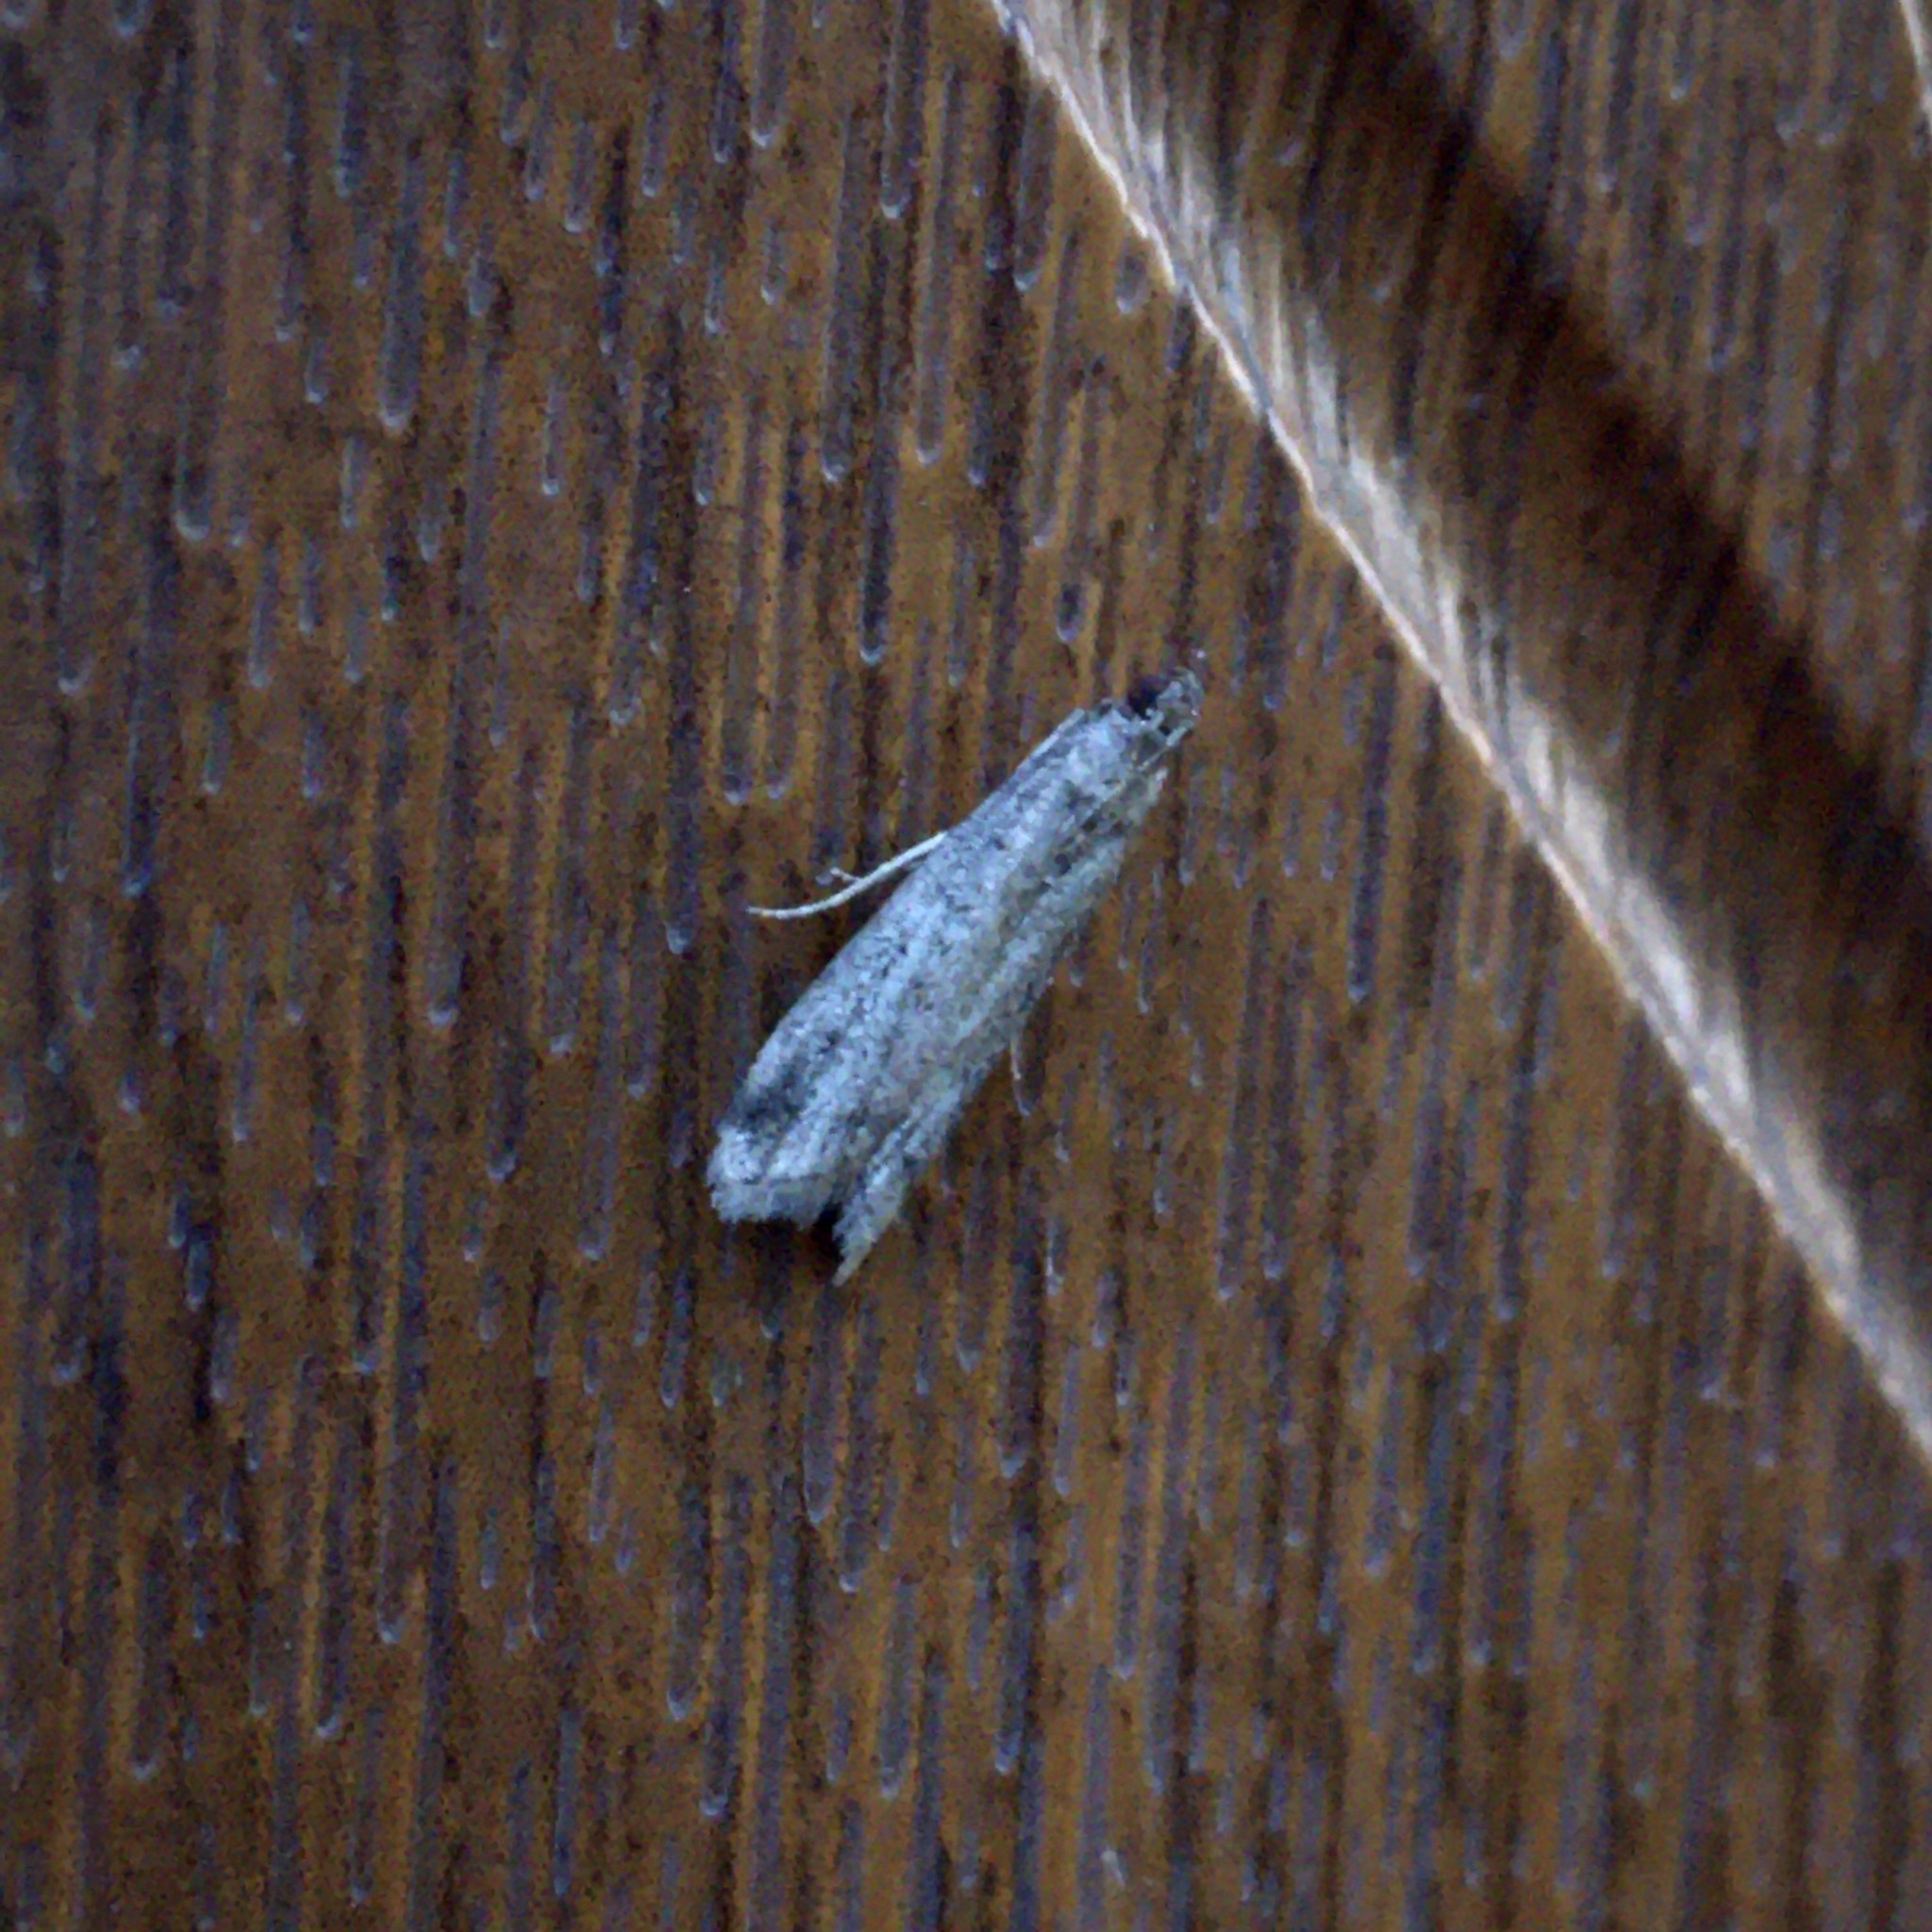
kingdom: Animalia
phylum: Arthropoda
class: Insecta
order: Lepidoptera
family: Pyralidae
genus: Euzophera
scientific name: Euzophera
